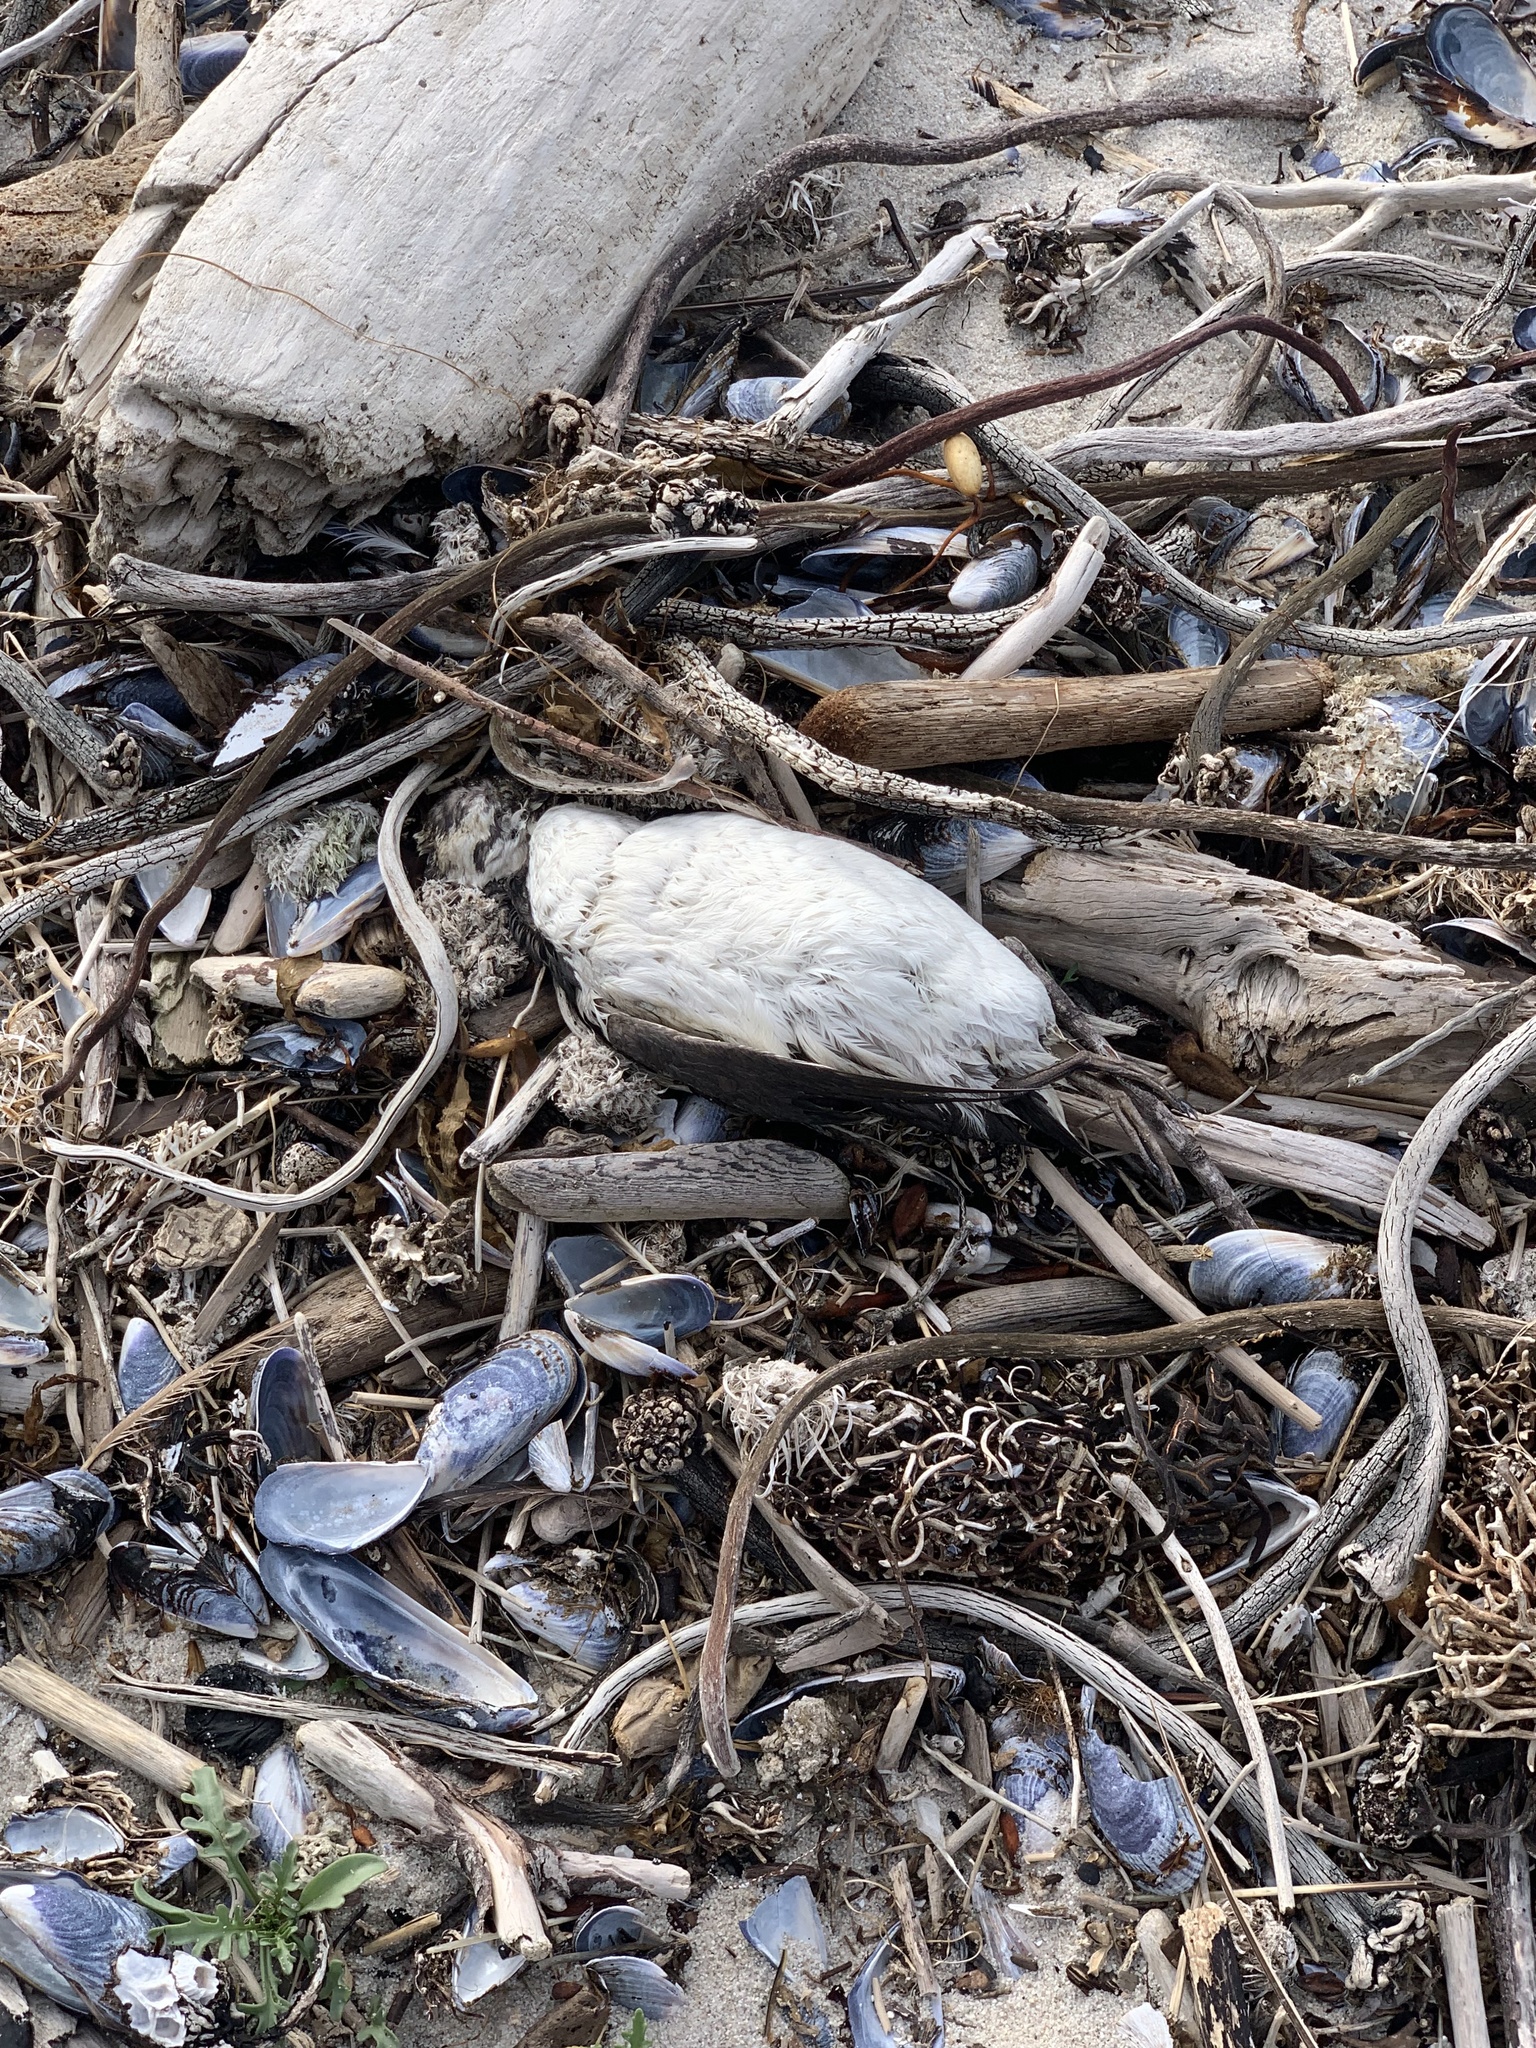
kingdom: Animalia
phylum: Chordata
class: Aves
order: Charadriiformes
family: Alcidae
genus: Uria
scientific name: Uria aalge
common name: Common murre
